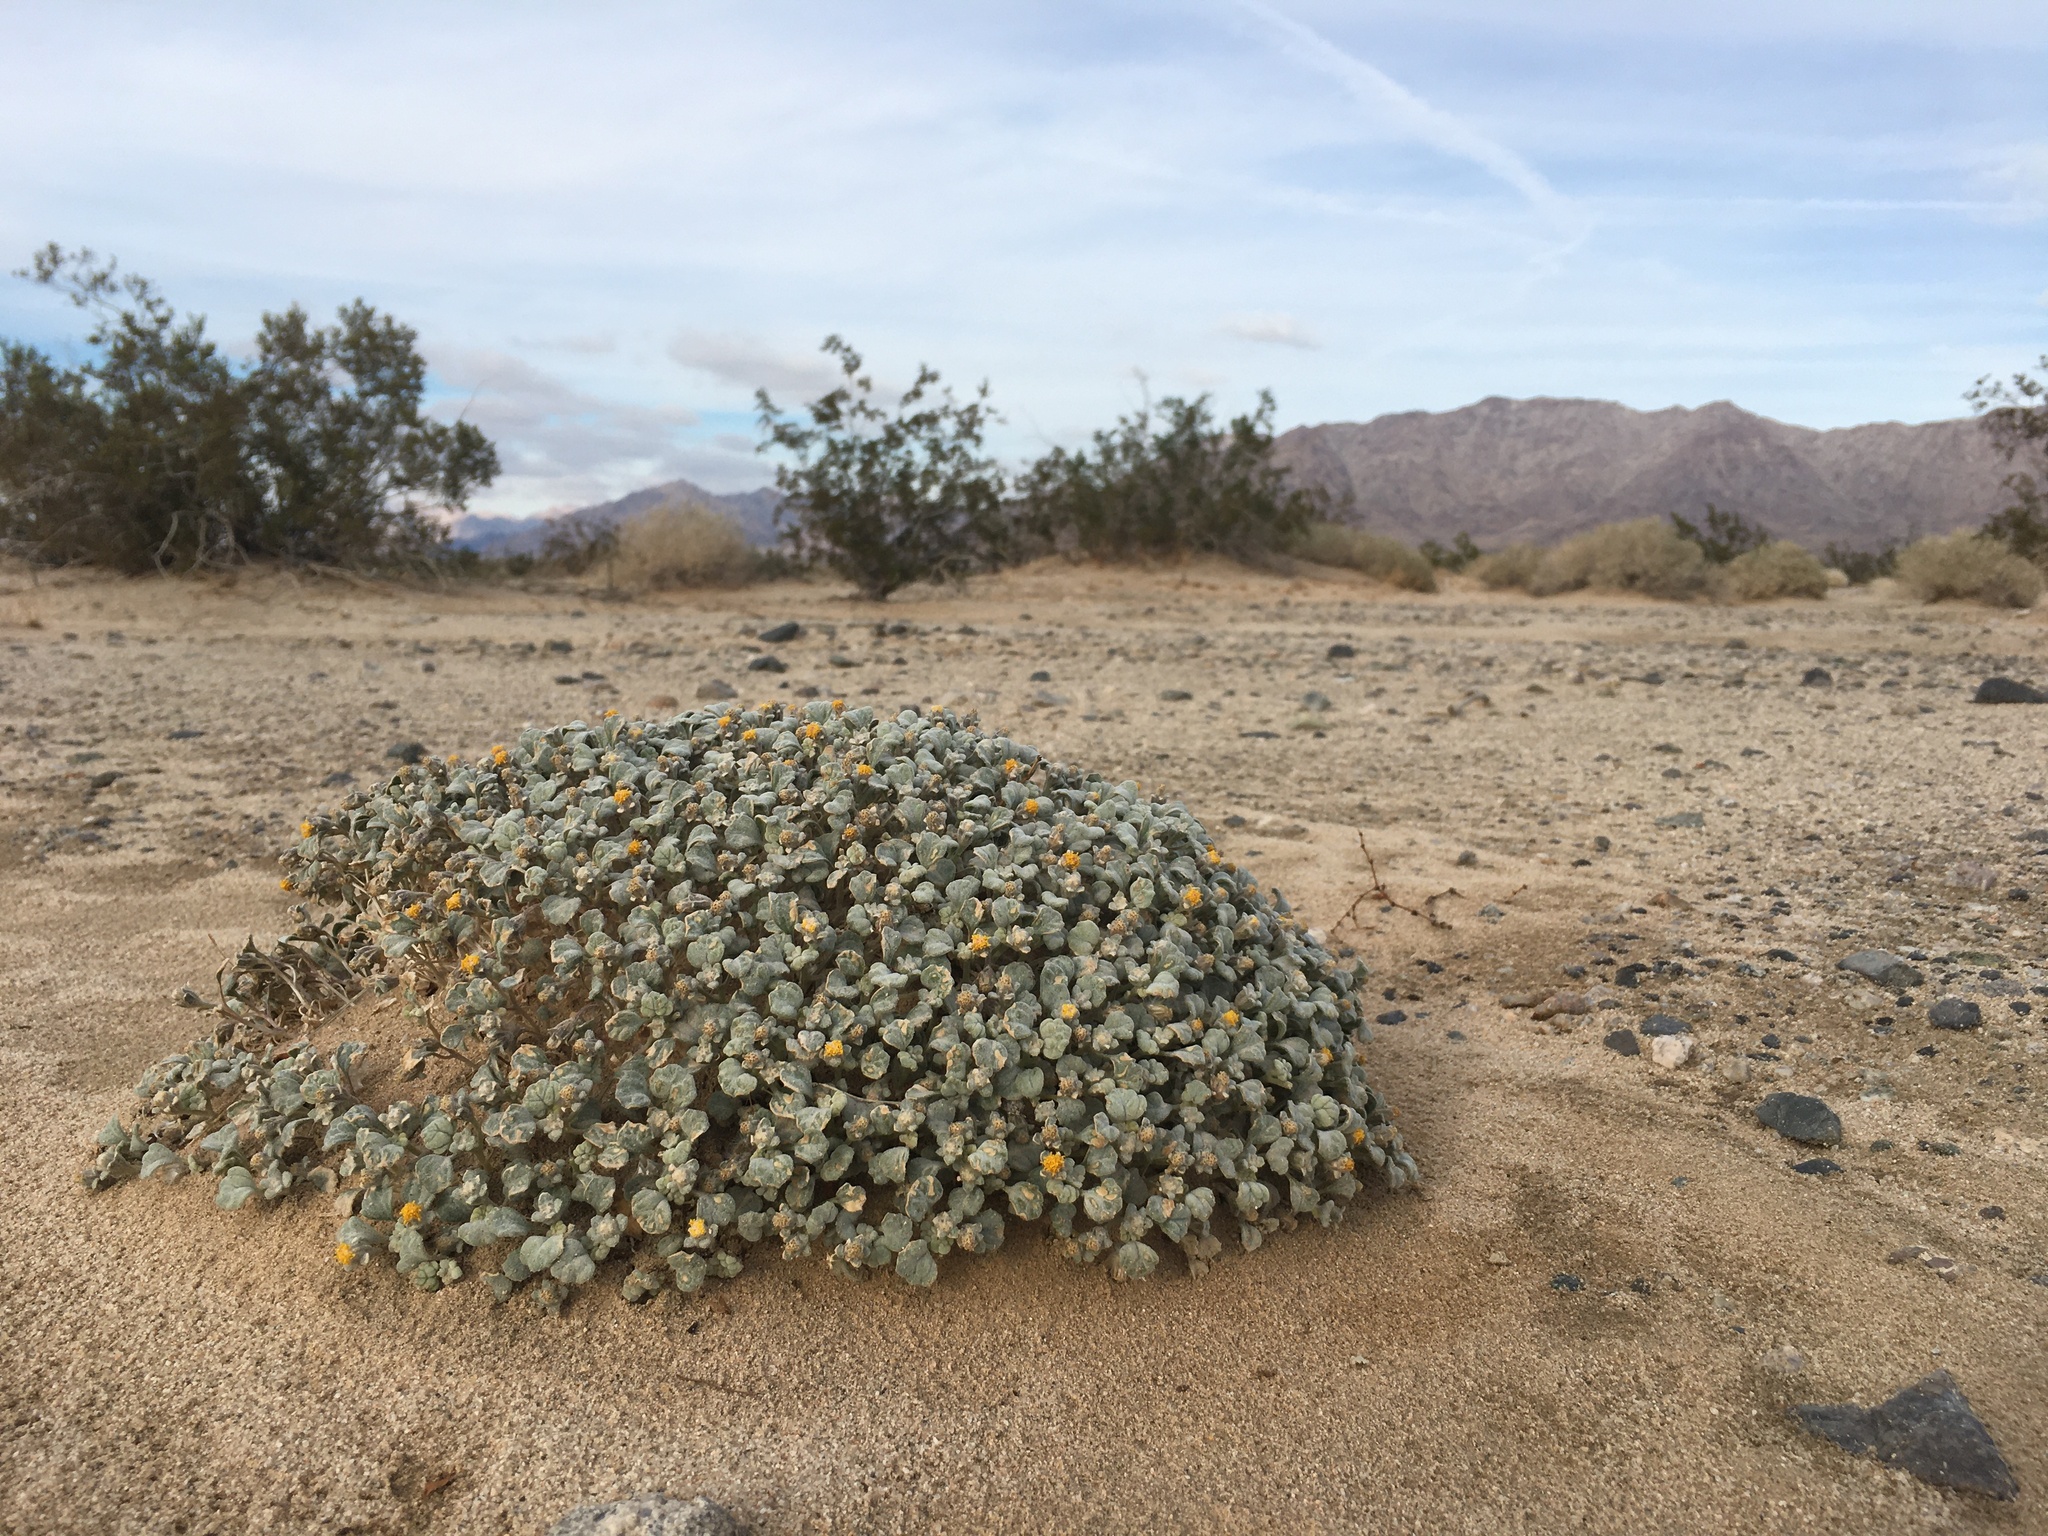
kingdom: Plantae
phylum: Tracheophyta
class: Magnoliopsida
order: Asterales
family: Asteraceae
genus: Psathyrotes
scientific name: Psathyrotes ramosissima
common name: Turtleback
